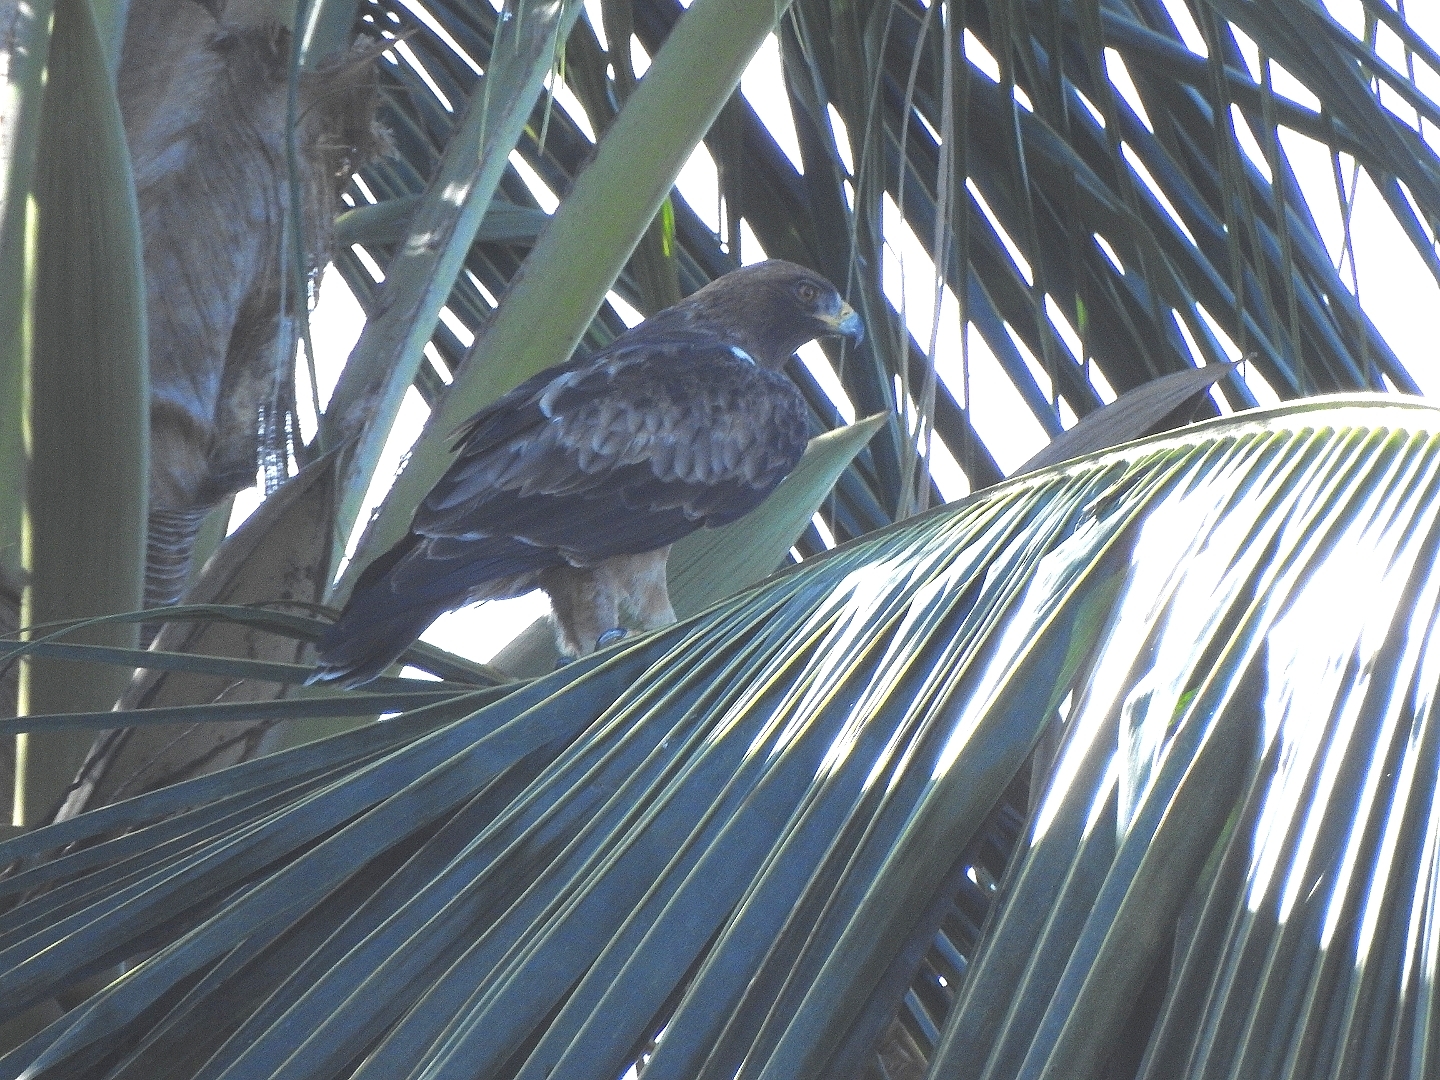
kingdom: Animalia
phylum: Chordata
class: Aves
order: Accipitriformes
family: Accipitridae
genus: Hieraaetus
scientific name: Hieraaetus pennatus
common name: Booted eagle
